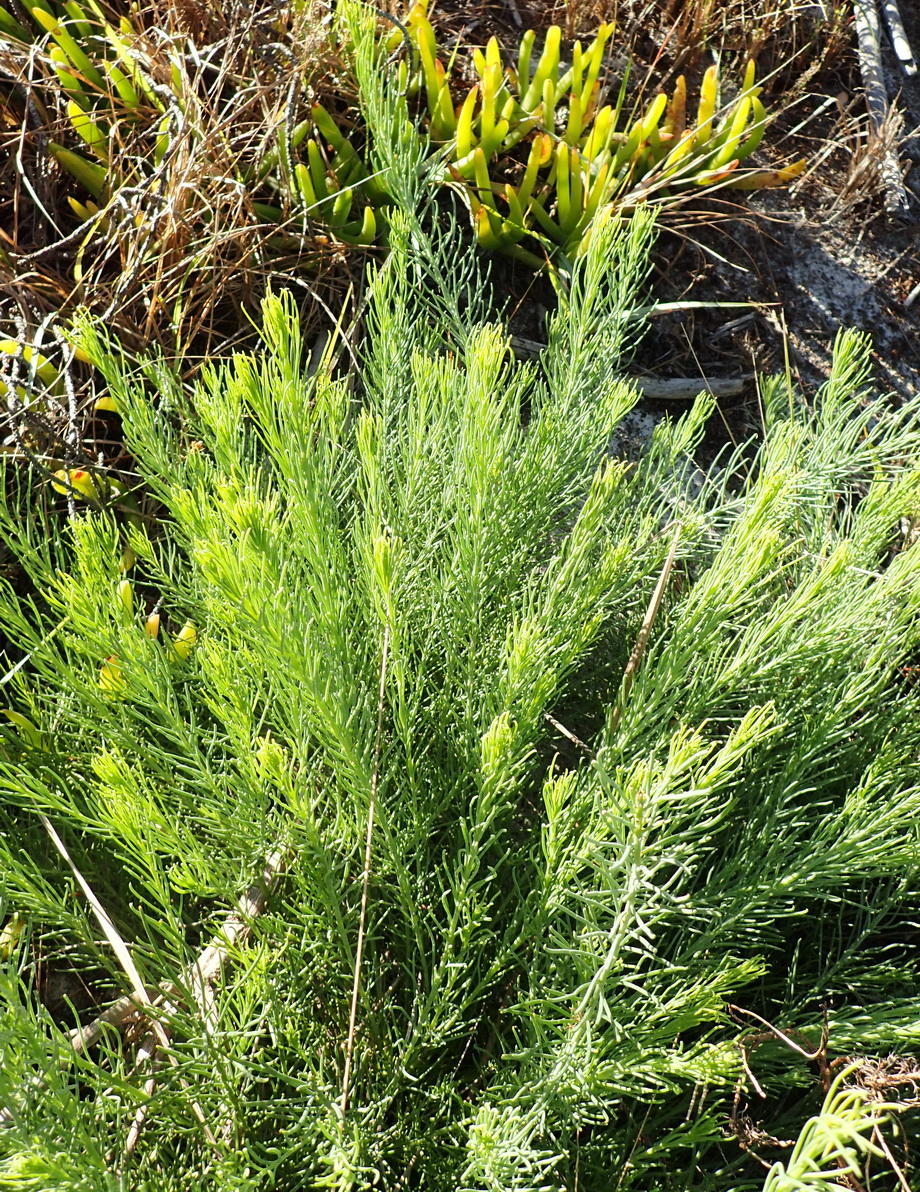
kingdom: Plantae
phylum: Tracheophyta
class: Magnoliopsida
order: Fabales
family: Fabaceae
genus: Lebeckia
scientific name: Lebeckia gracilis
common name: Slender ganna
